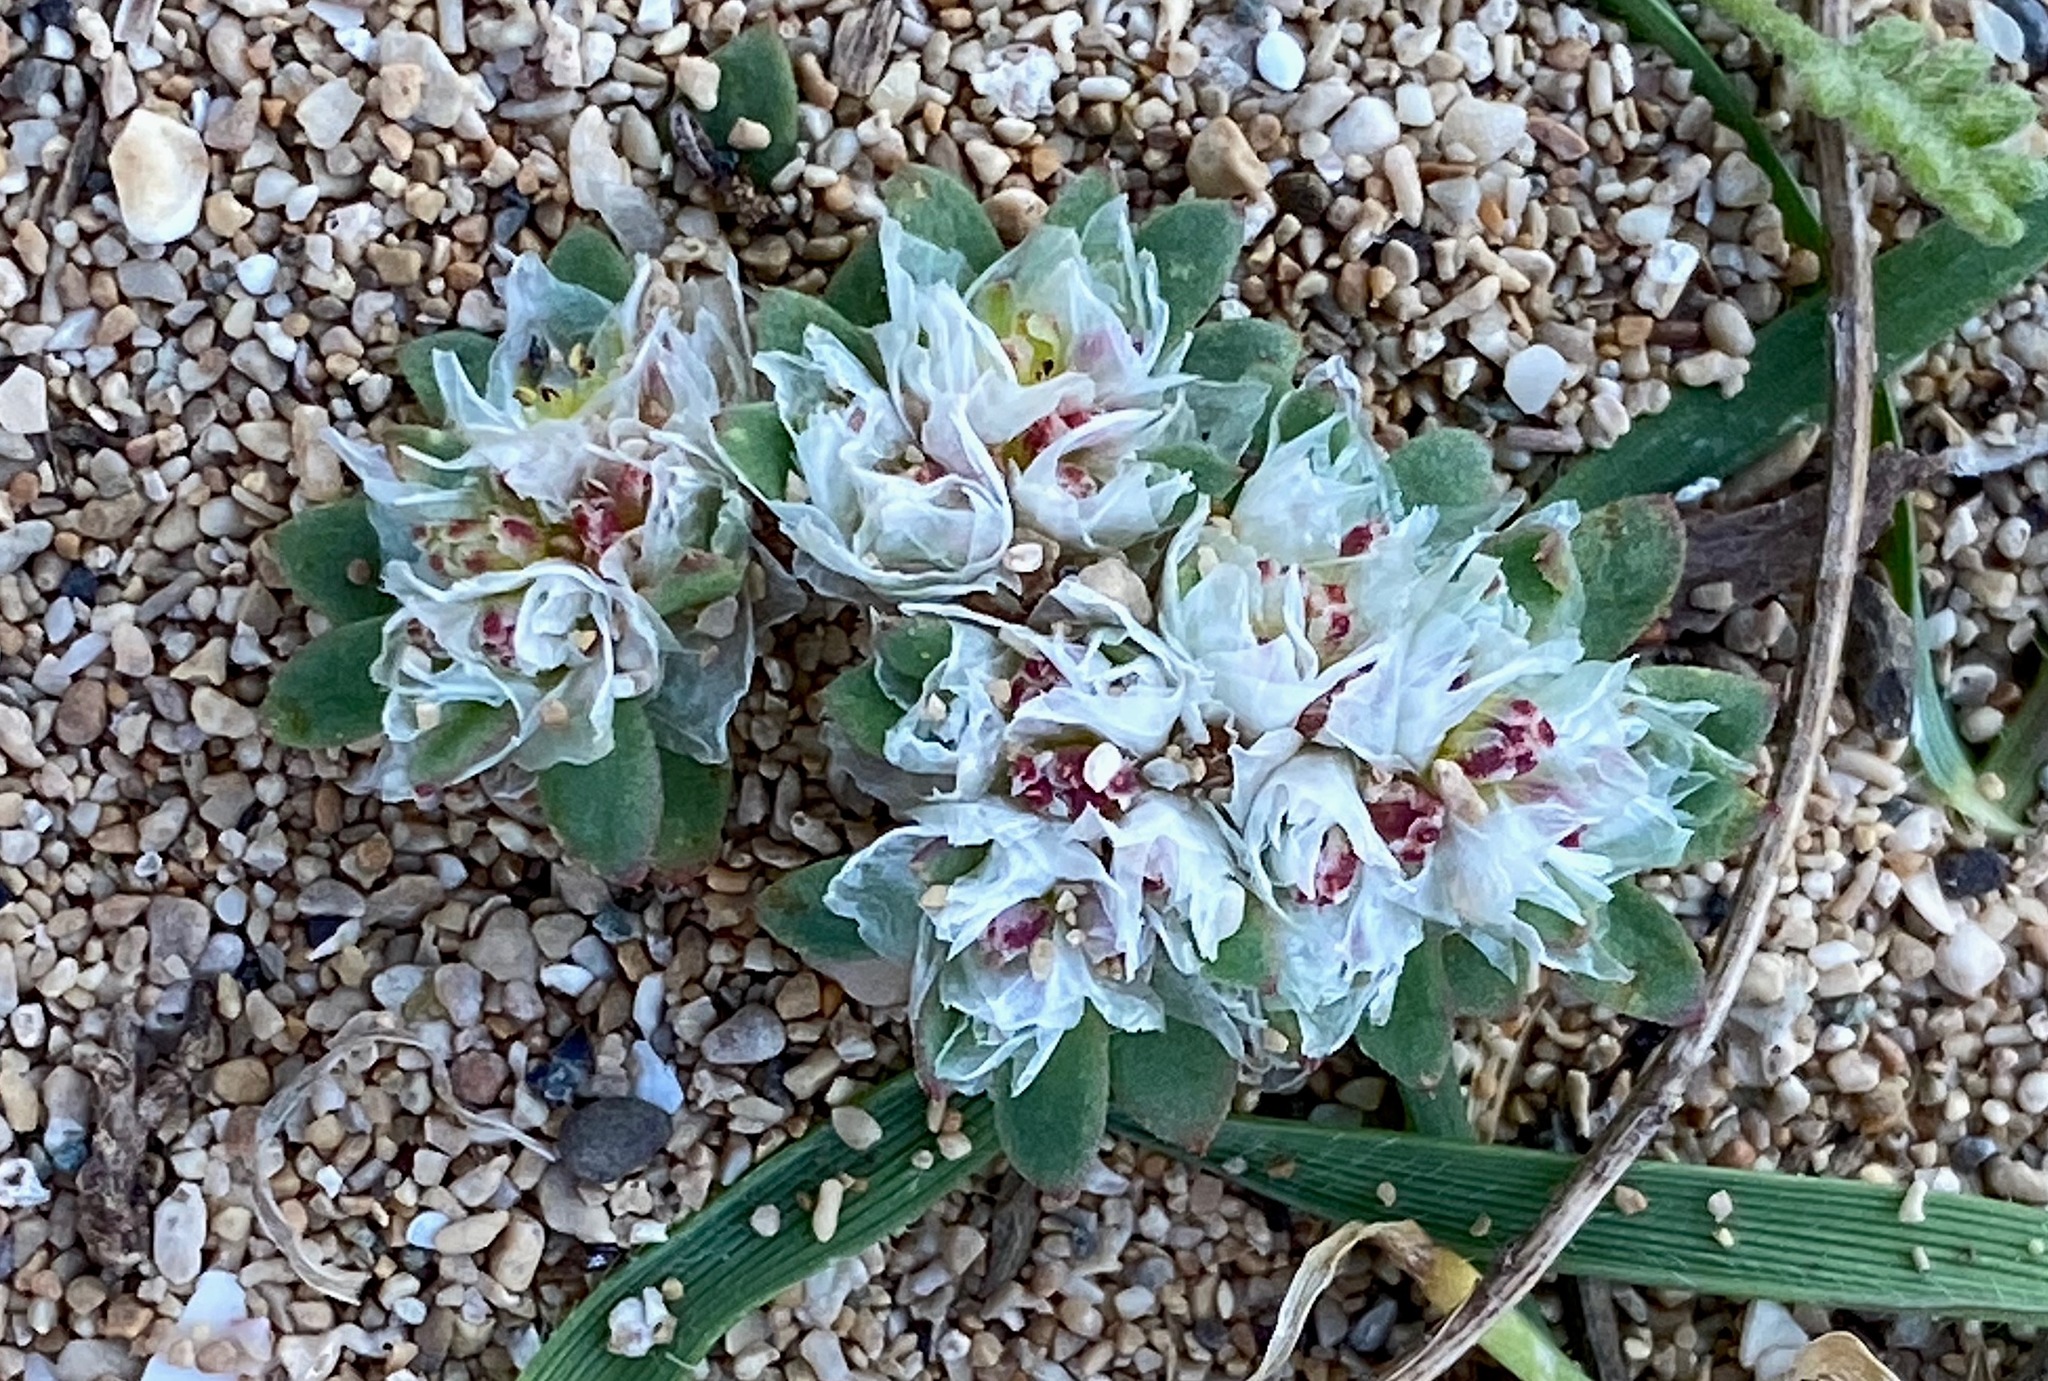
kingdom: Plantae
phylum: Tracheophyta
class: Magnoliopsida
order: Caryophyllales
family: Caryophyllaceae
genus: Paronychia
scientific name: Paronychia argentea
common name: Silver nailroot
